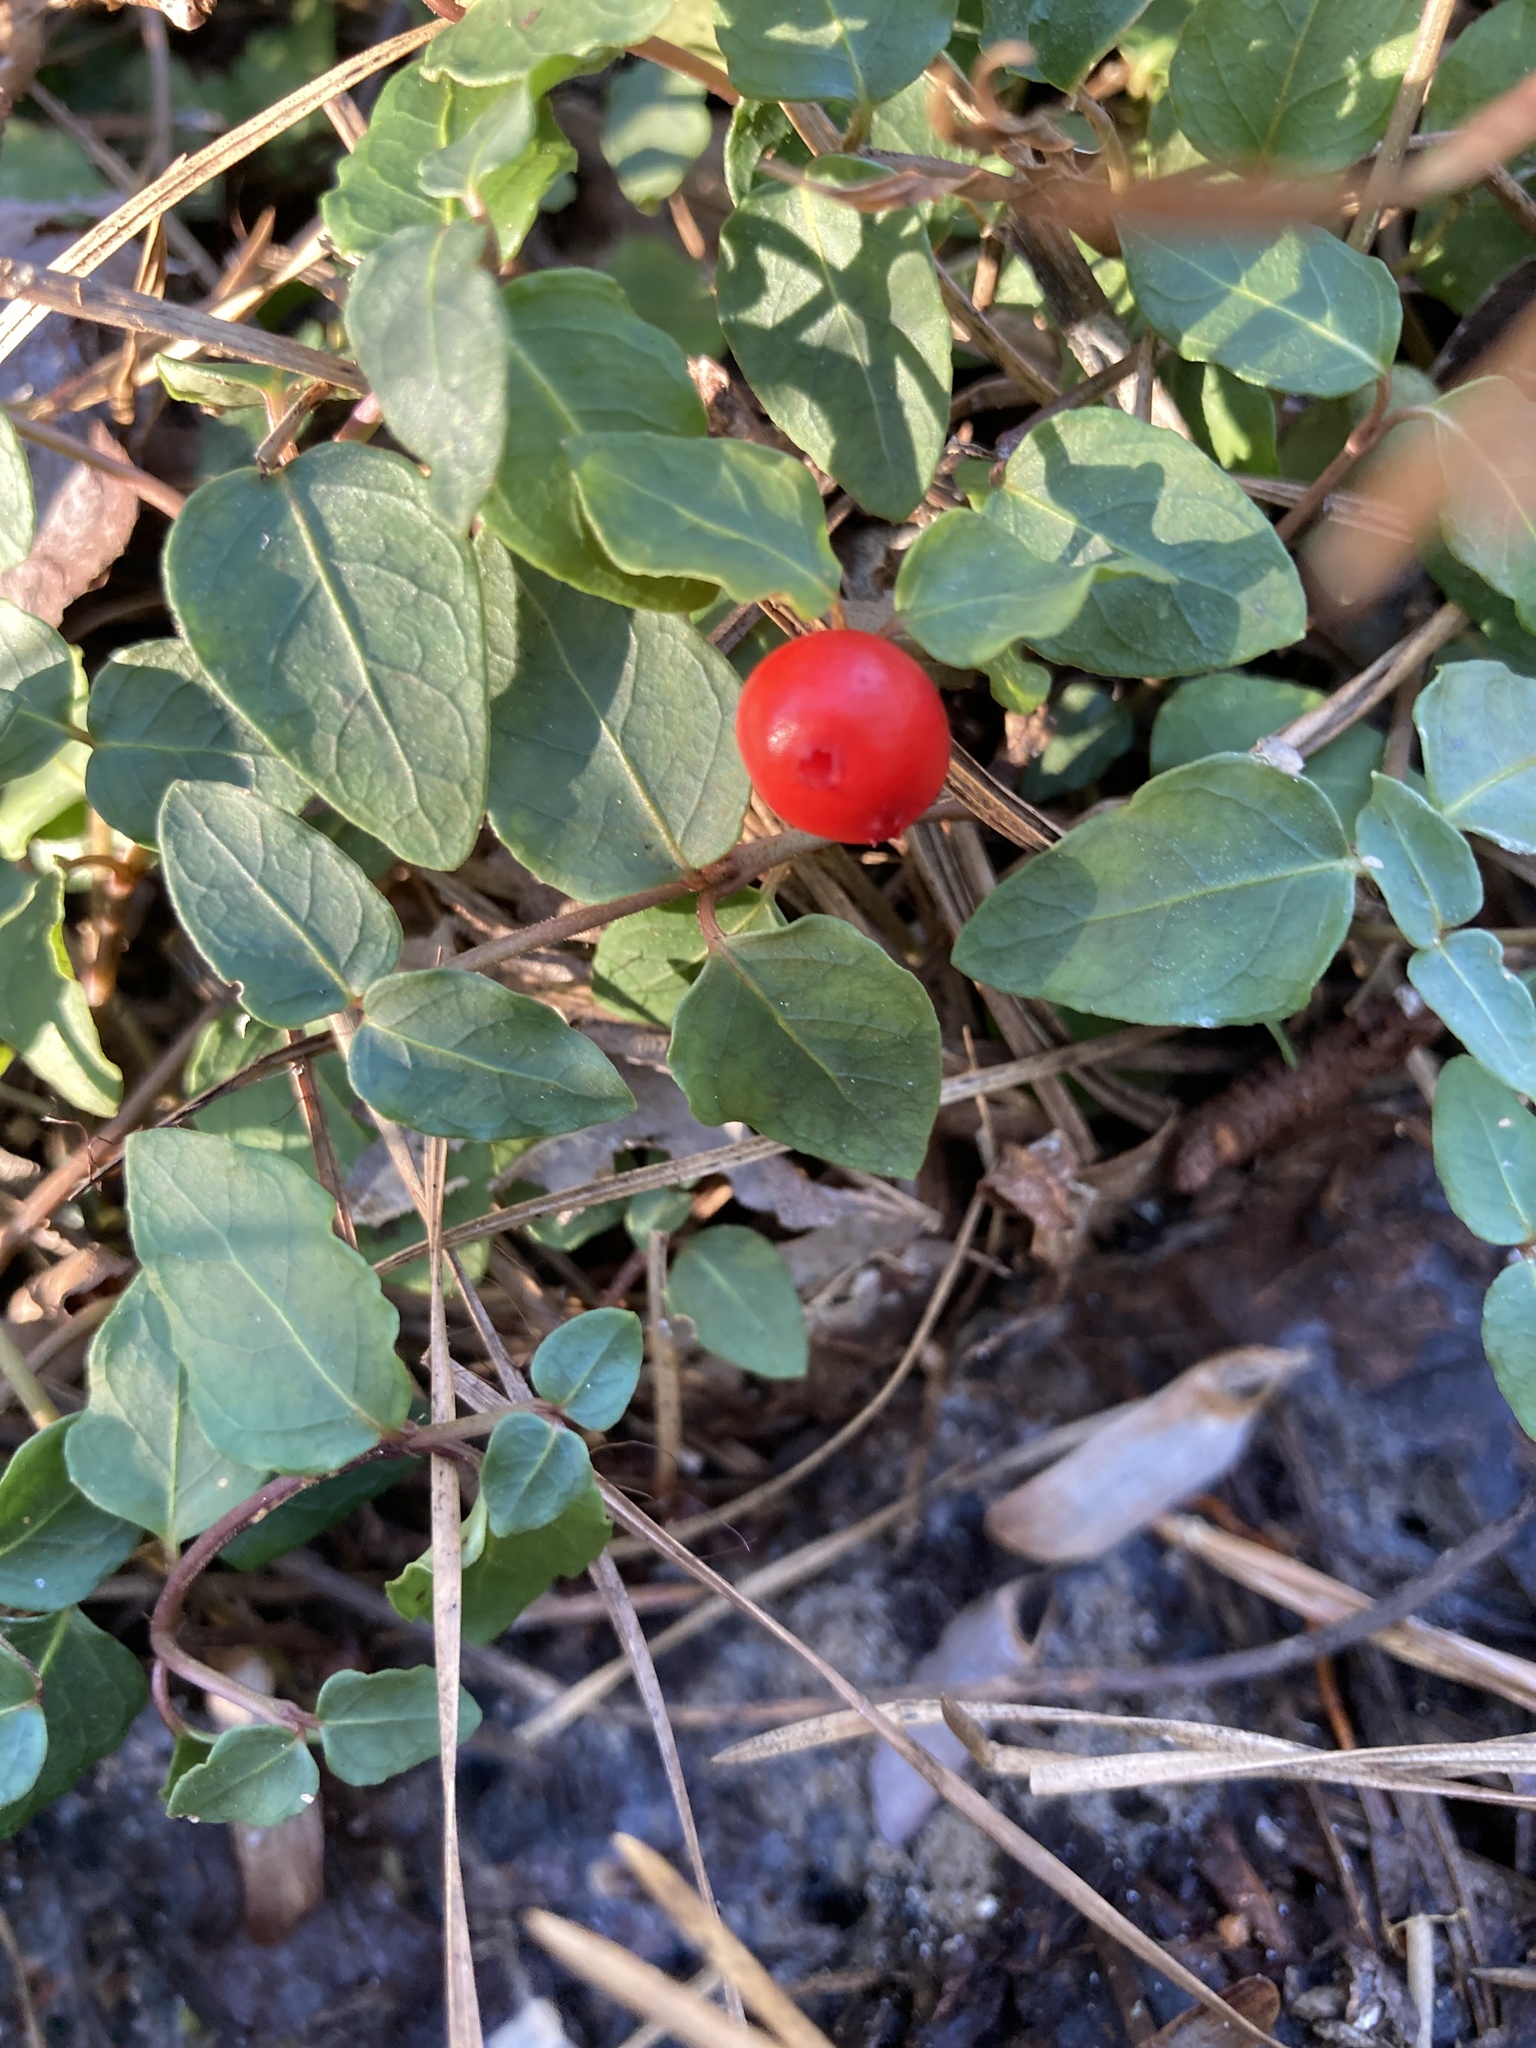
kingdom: Plantae
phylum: Tracheophyta
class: Magnoliopsida
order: Gentianales
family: Rubiaceae
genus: Mitchella
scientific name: Mitchella repens
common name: Partridge-berry
